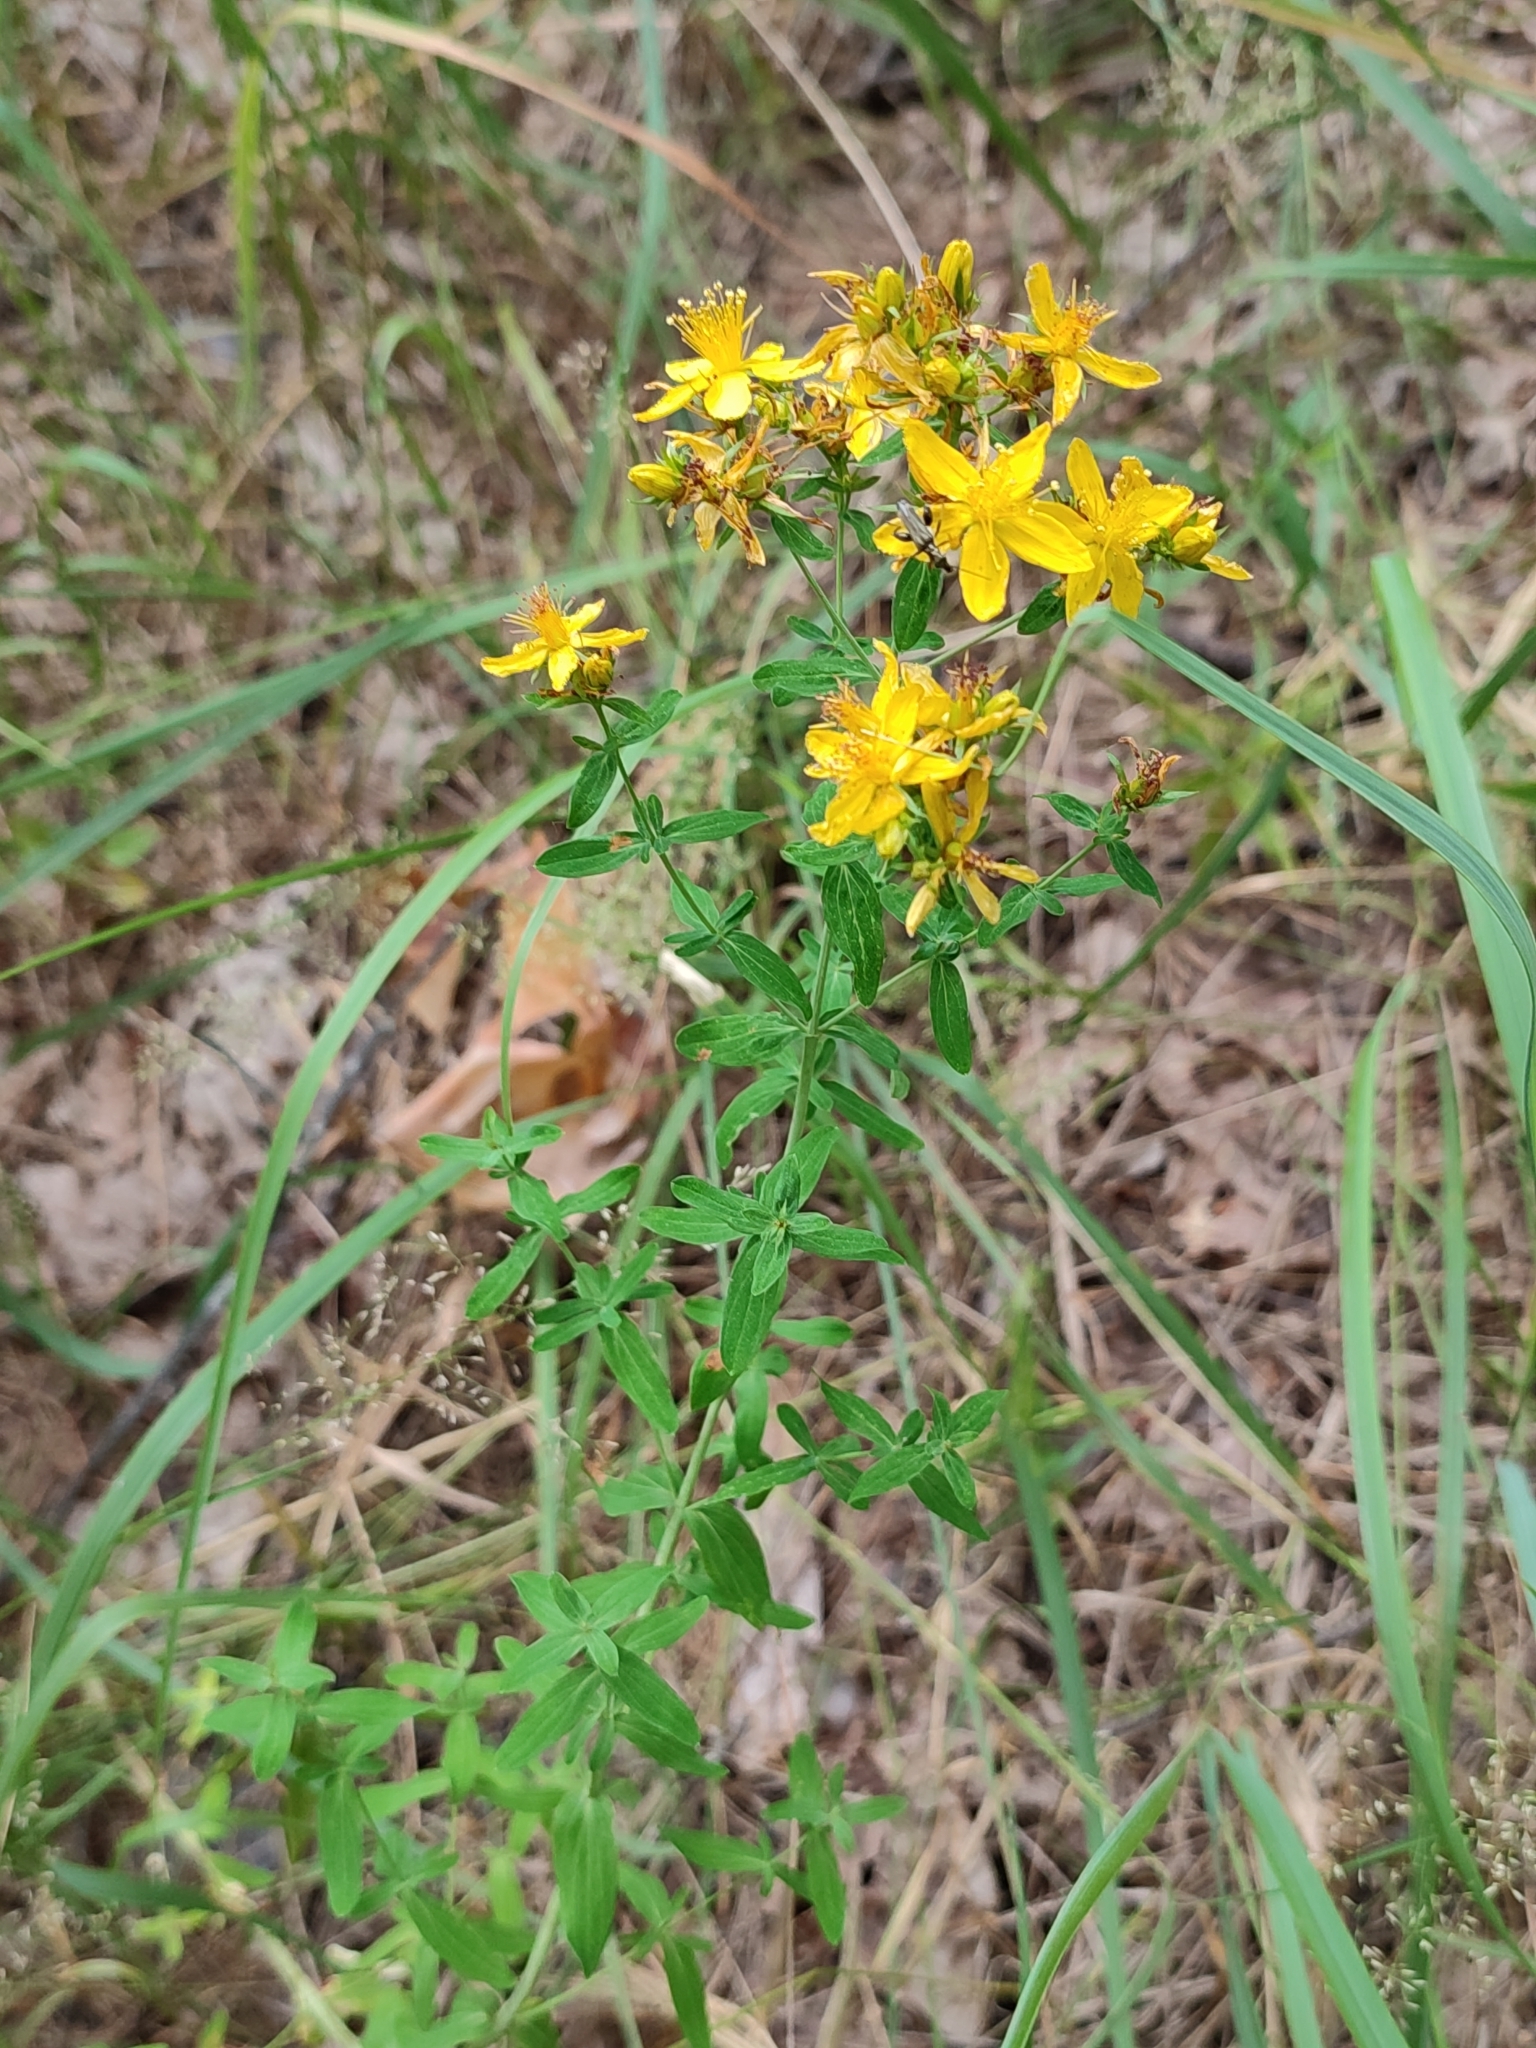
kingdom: Plantae
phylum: Tracheophyta
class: Magnoliopsida
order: Malpighiales
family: Hypericaceae
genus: Hypericum
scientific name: Hypericum perforatum
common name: Common st. johnswort
